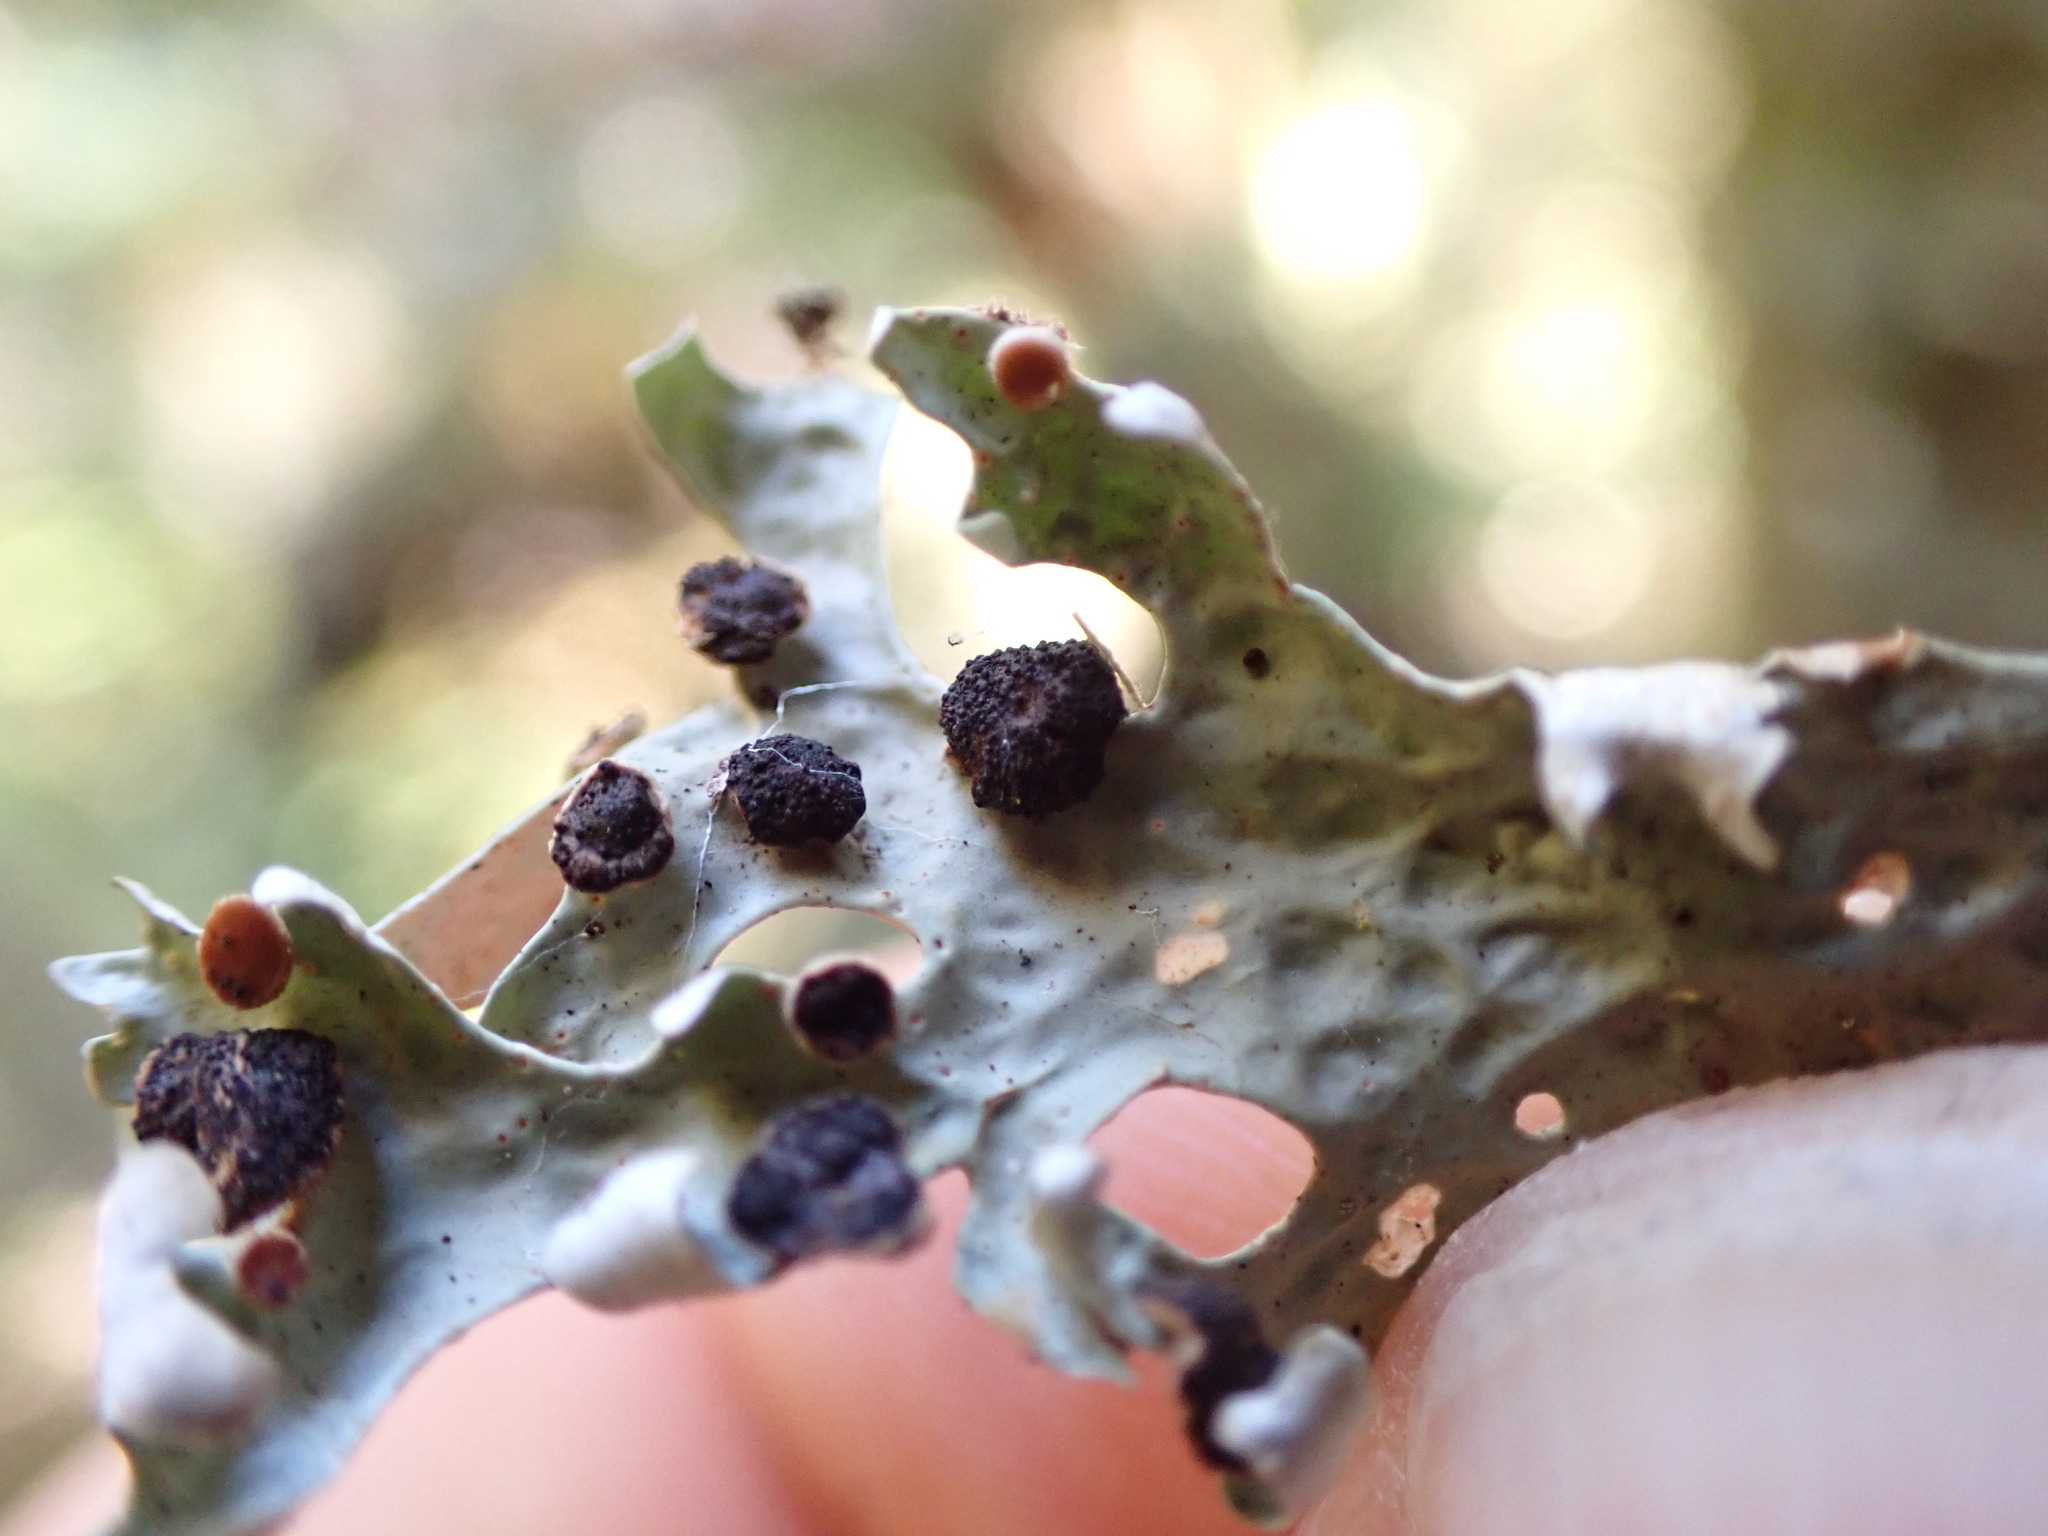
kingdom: Fungi
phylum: Ascomycota
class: Arthoniomycetes
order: Arthoniales
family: Lecanographaceae
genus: Plectocarpon
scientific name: Plectocarpon lichenum
